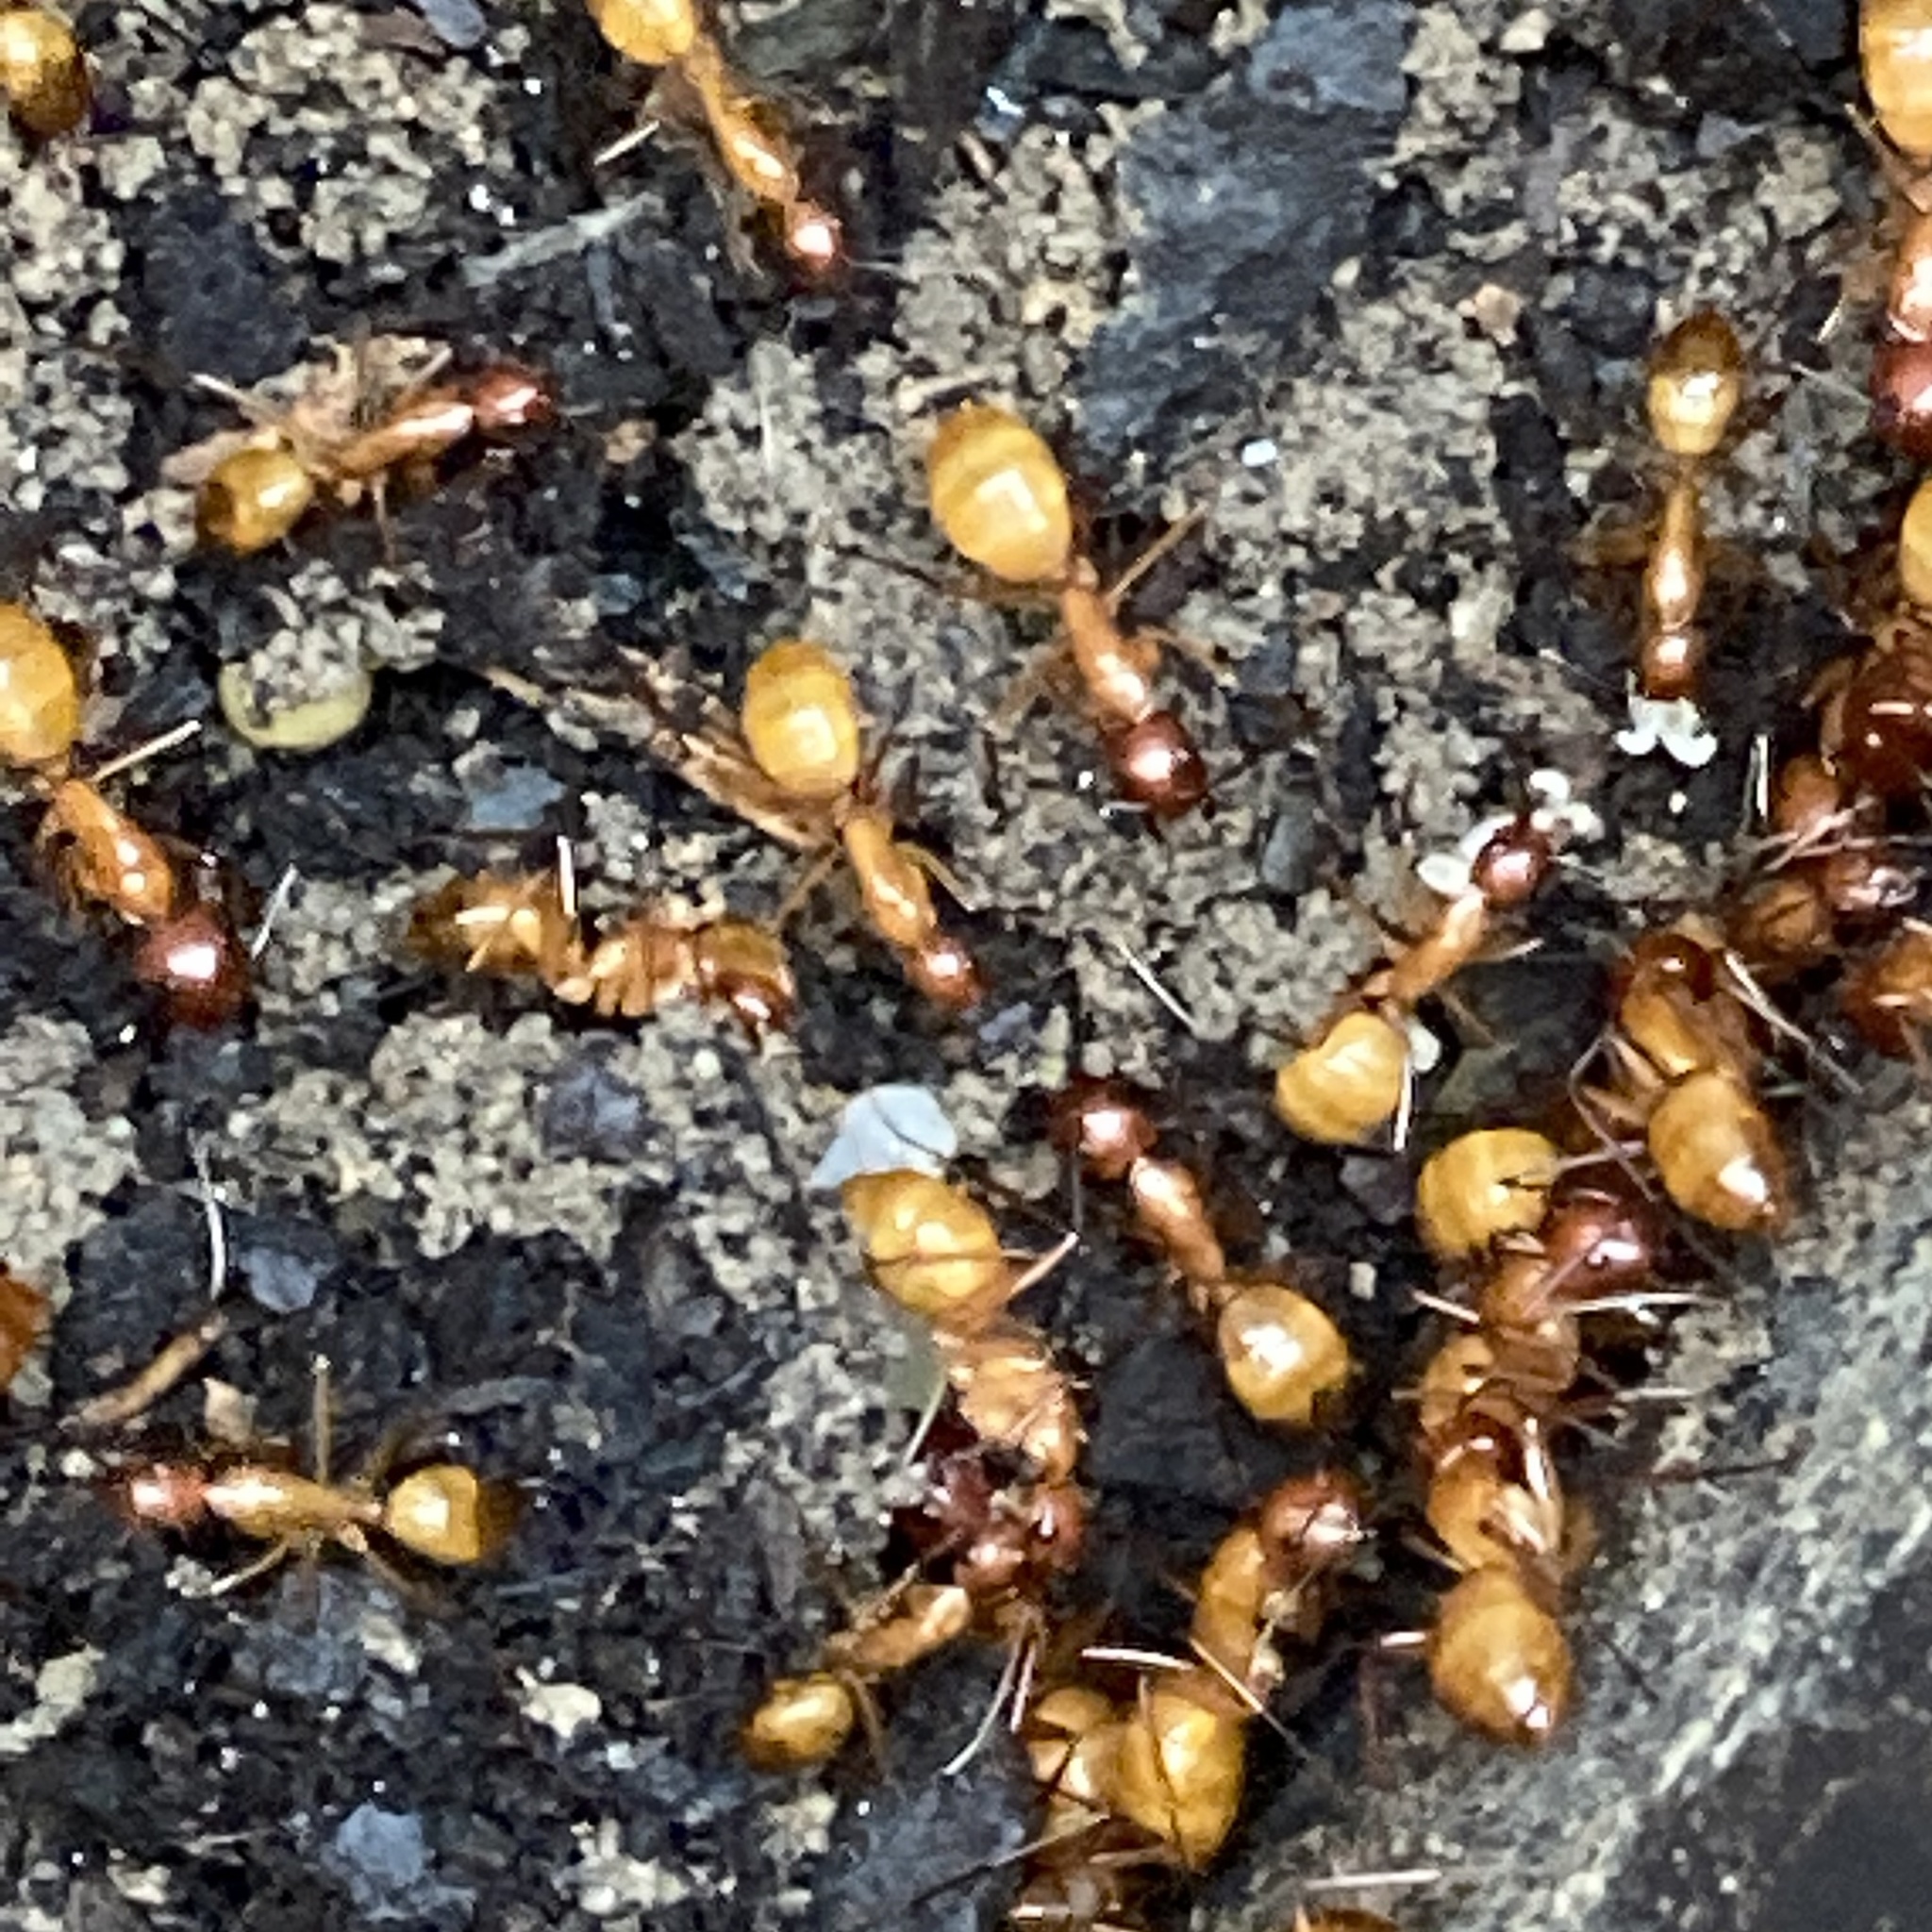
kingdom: Animalia
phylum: Arthropoda
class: Insecta
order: Hymenoptera
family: Formicidae
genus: Camponotus
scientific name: Camponotus castaneus
